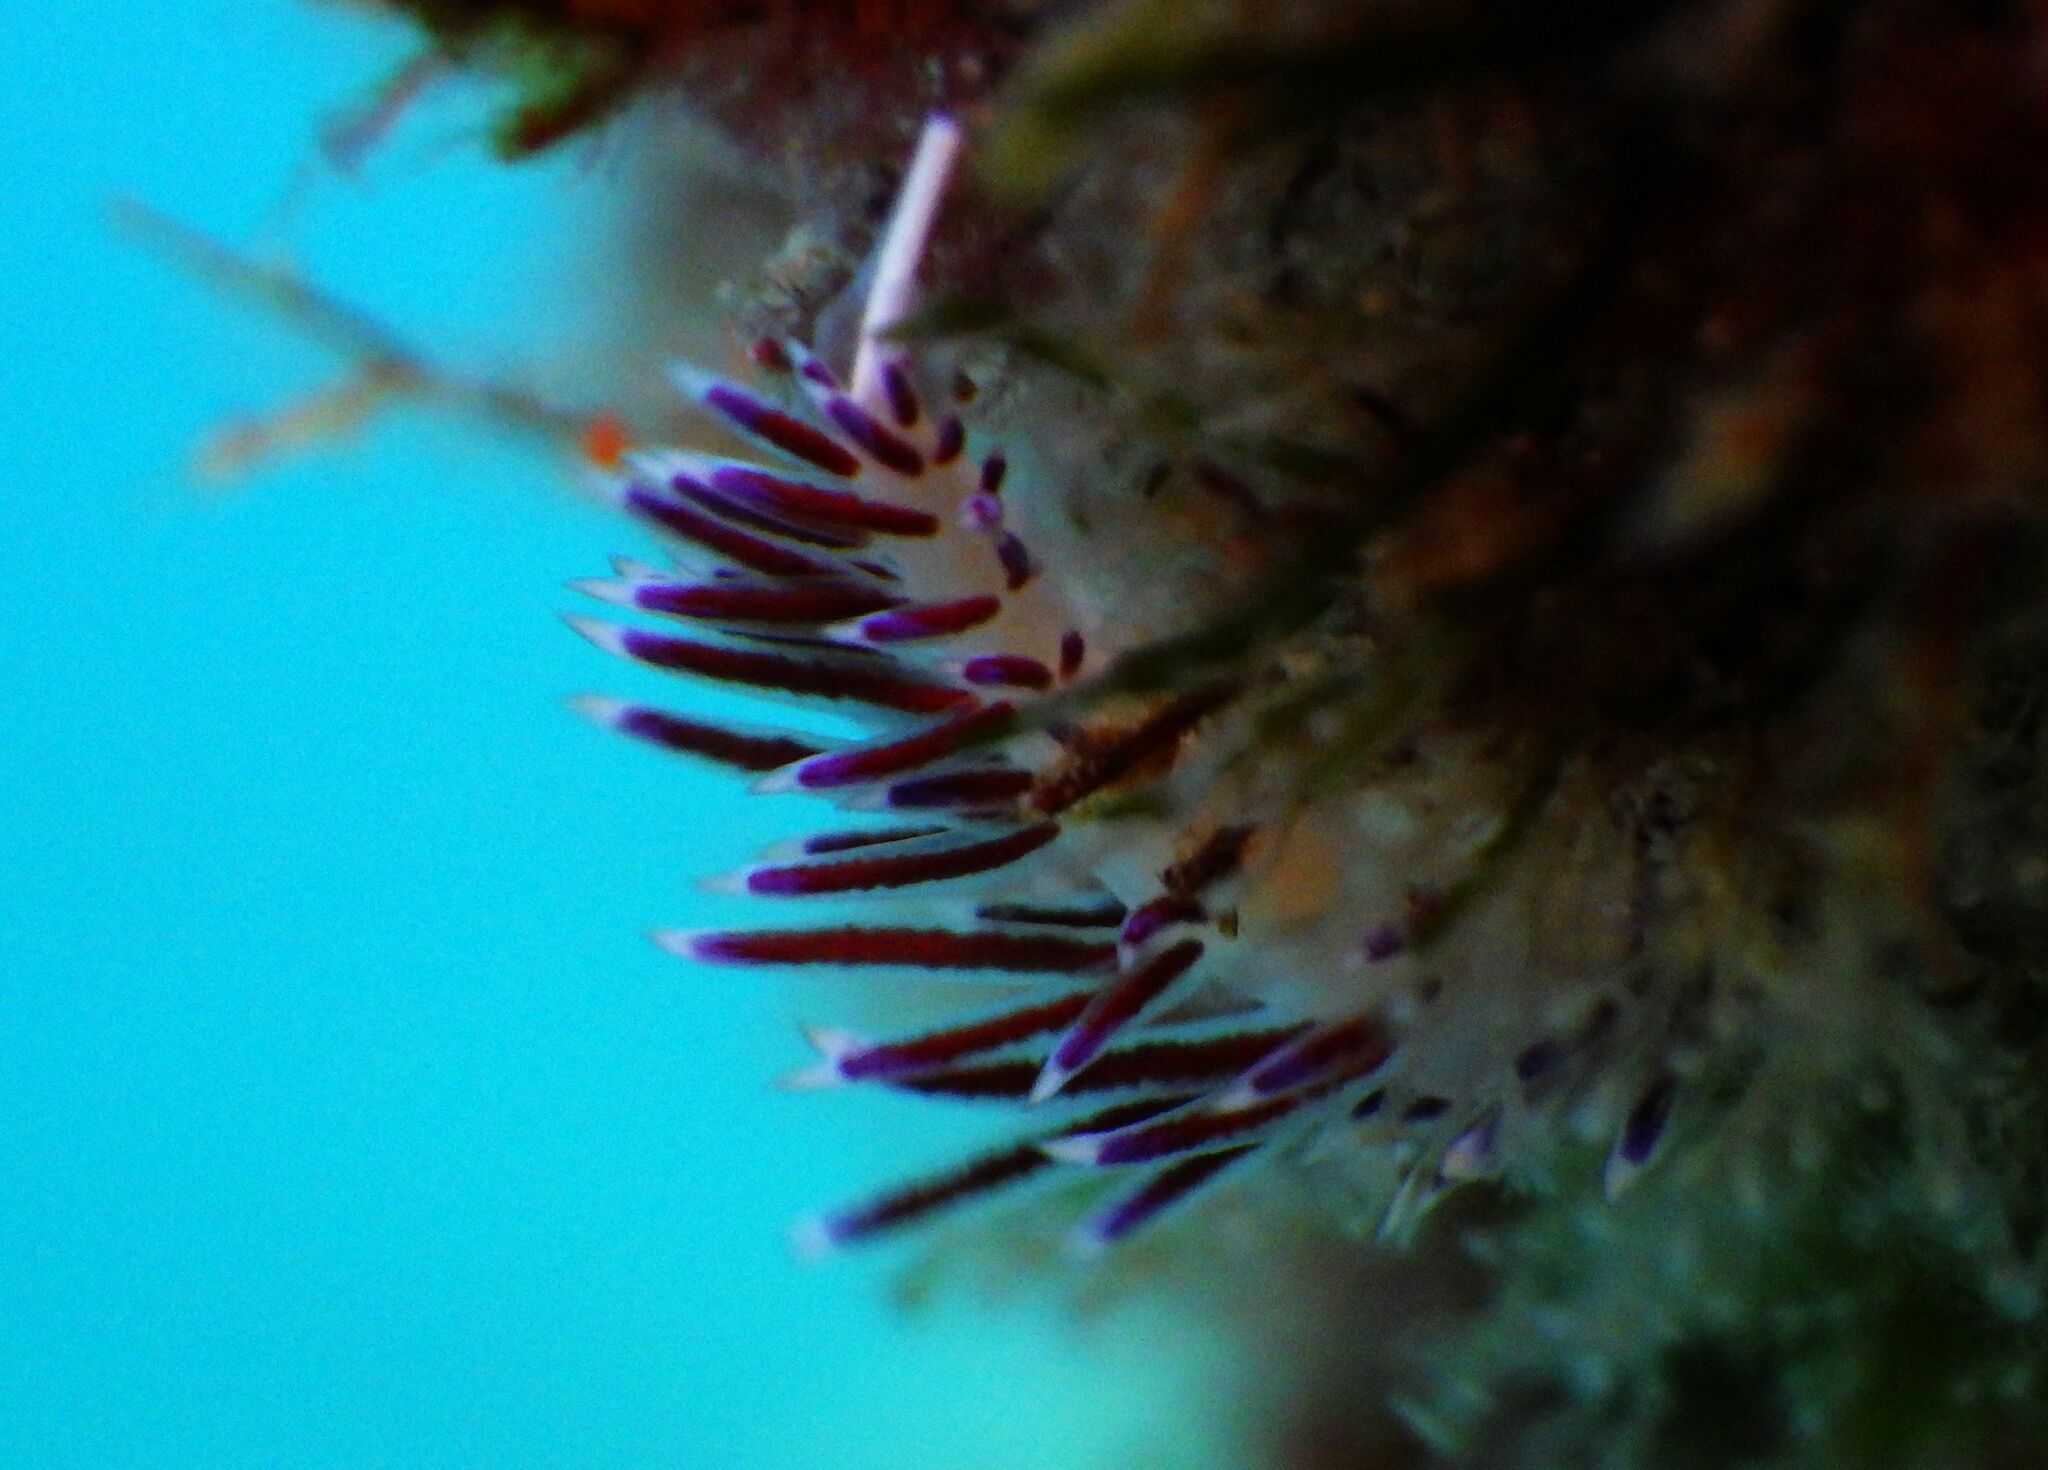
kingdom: Animalia
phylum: Mollusca
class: Gastropoda
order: Nudibranchia
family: Facelinidae
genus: Cratena
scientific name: Cratena peregrina
